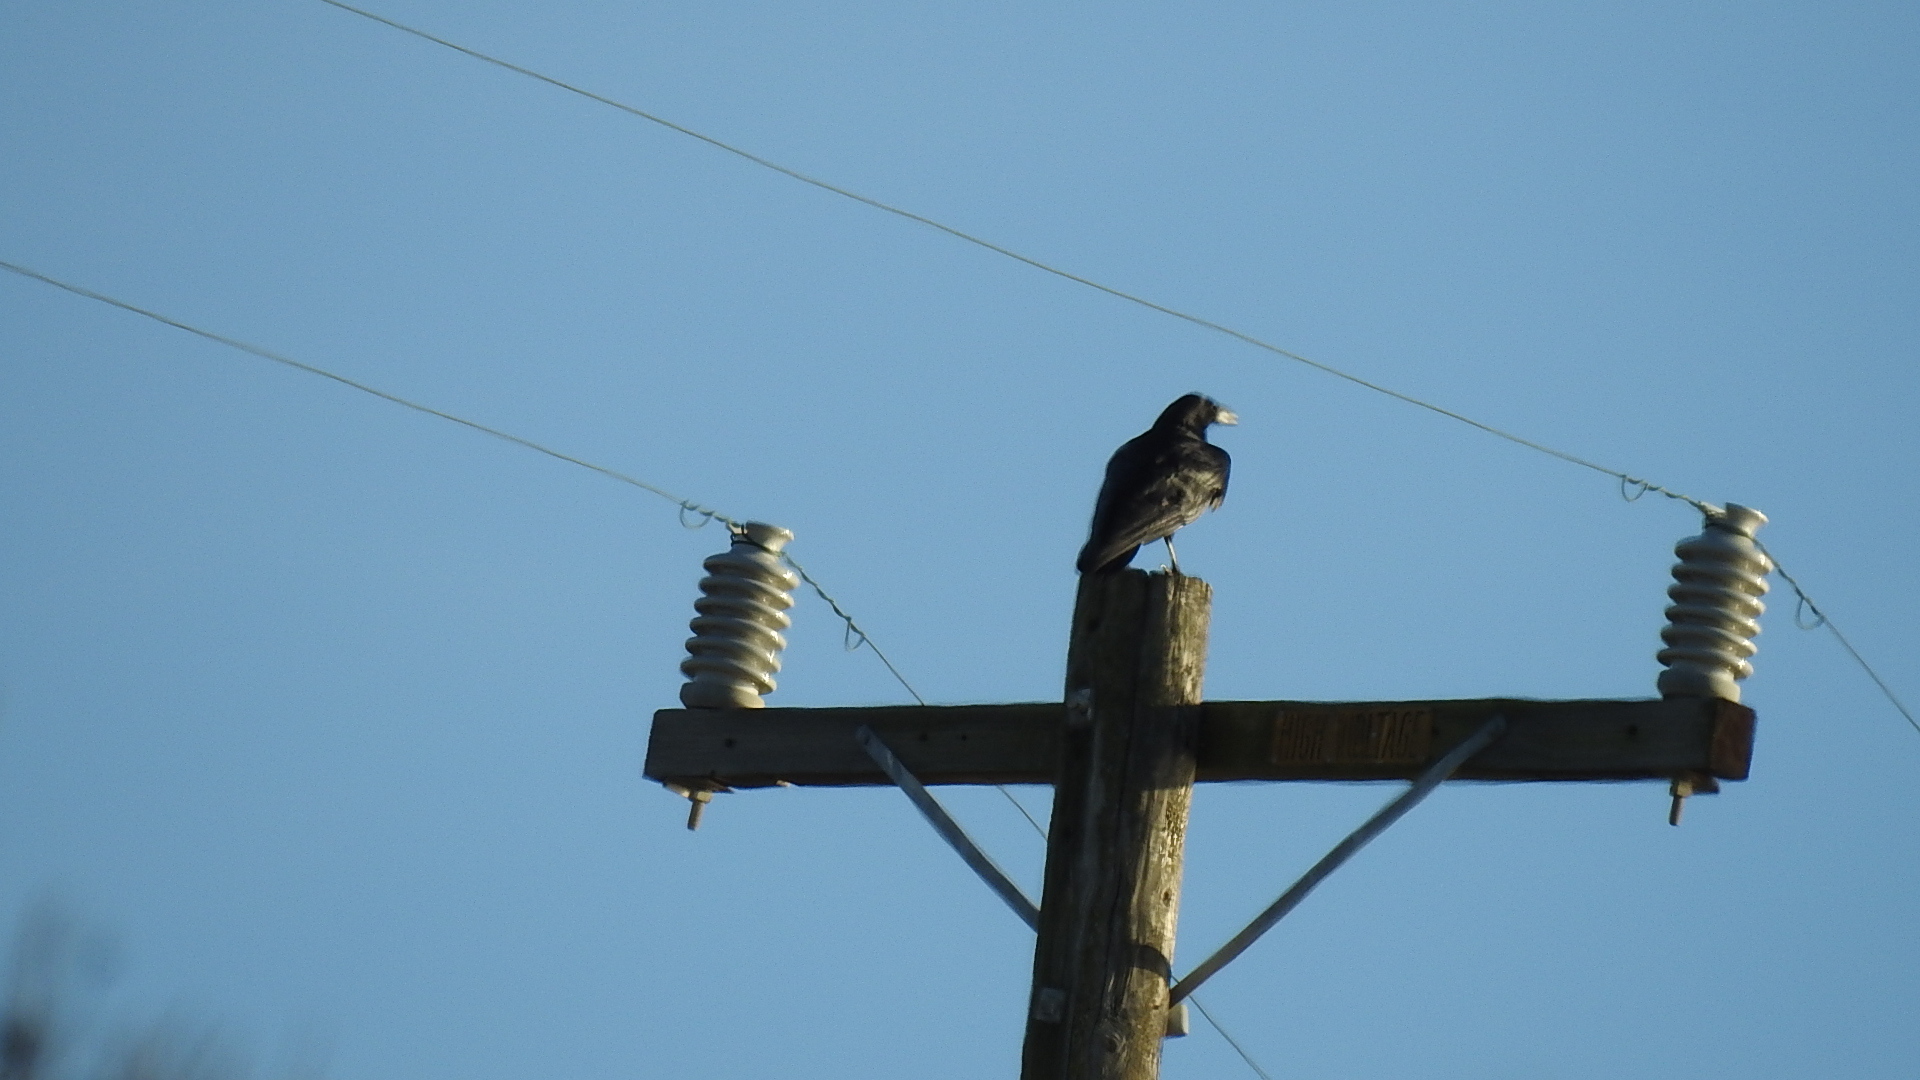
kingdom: Animalia
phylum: Chordata
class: Aves
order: Passeriformes
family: Corvidae
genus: Corvus
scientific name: Corvus corax
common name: Common raven
